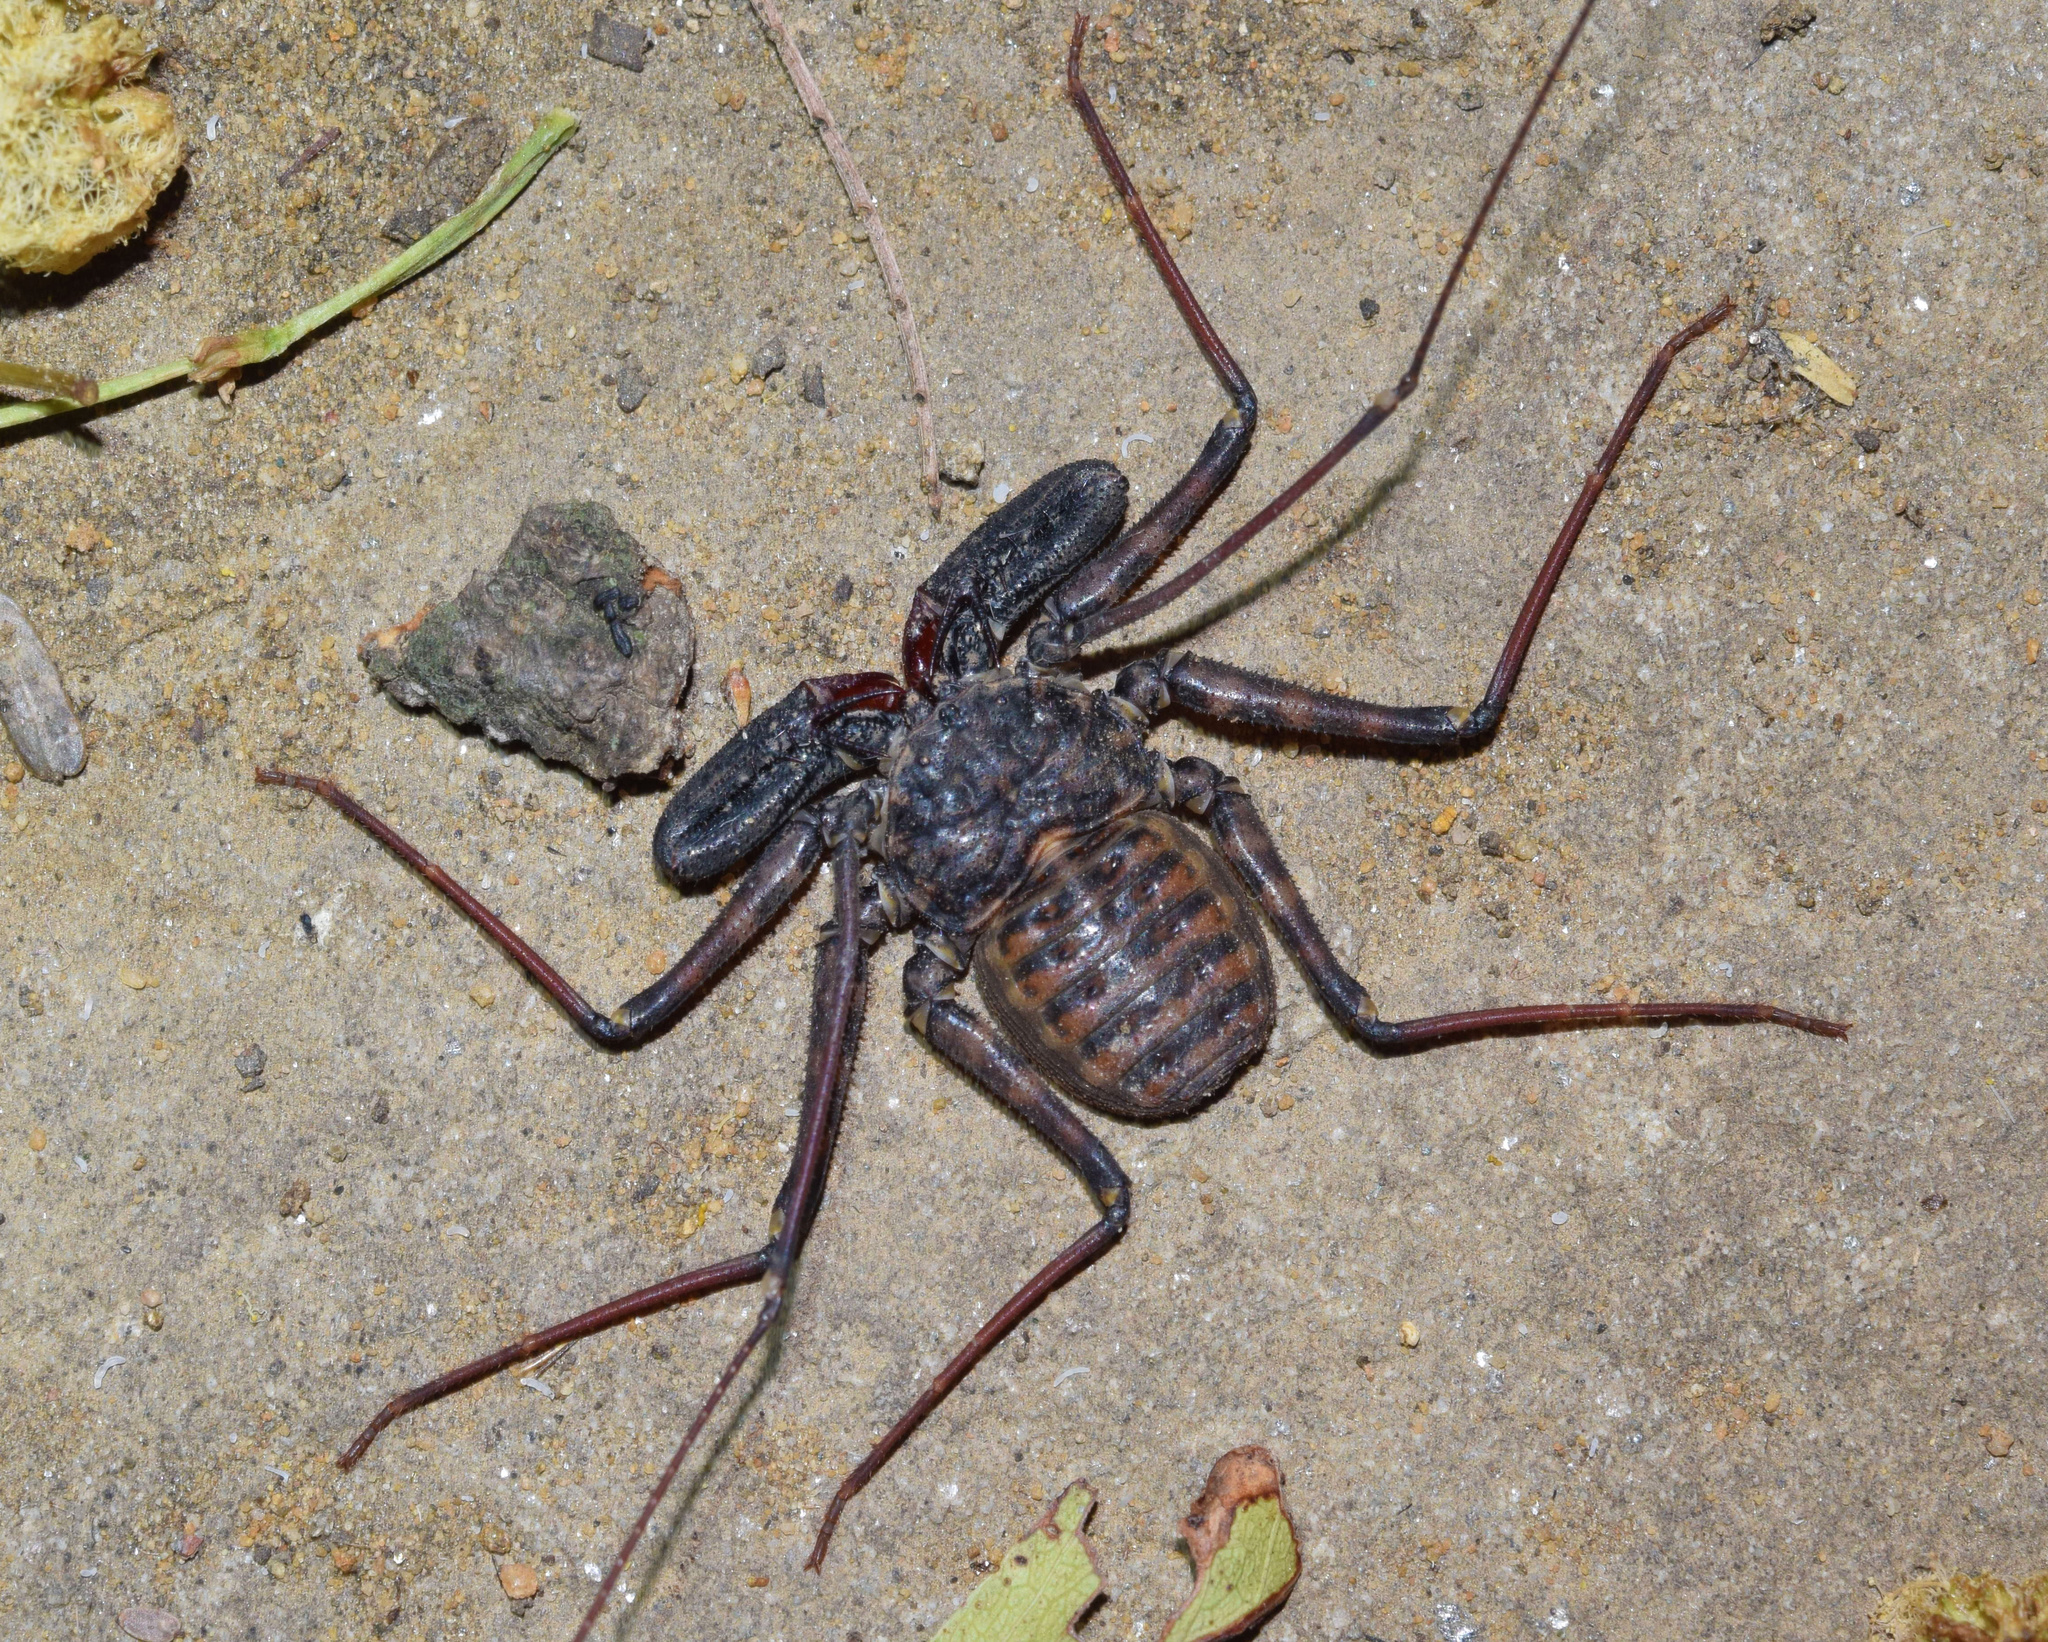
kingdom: Animalia
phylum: Arthropoda
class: Arachnida
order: Amblypygi
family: Phrynichidae
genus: Damon
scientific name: Damon annulatipes
